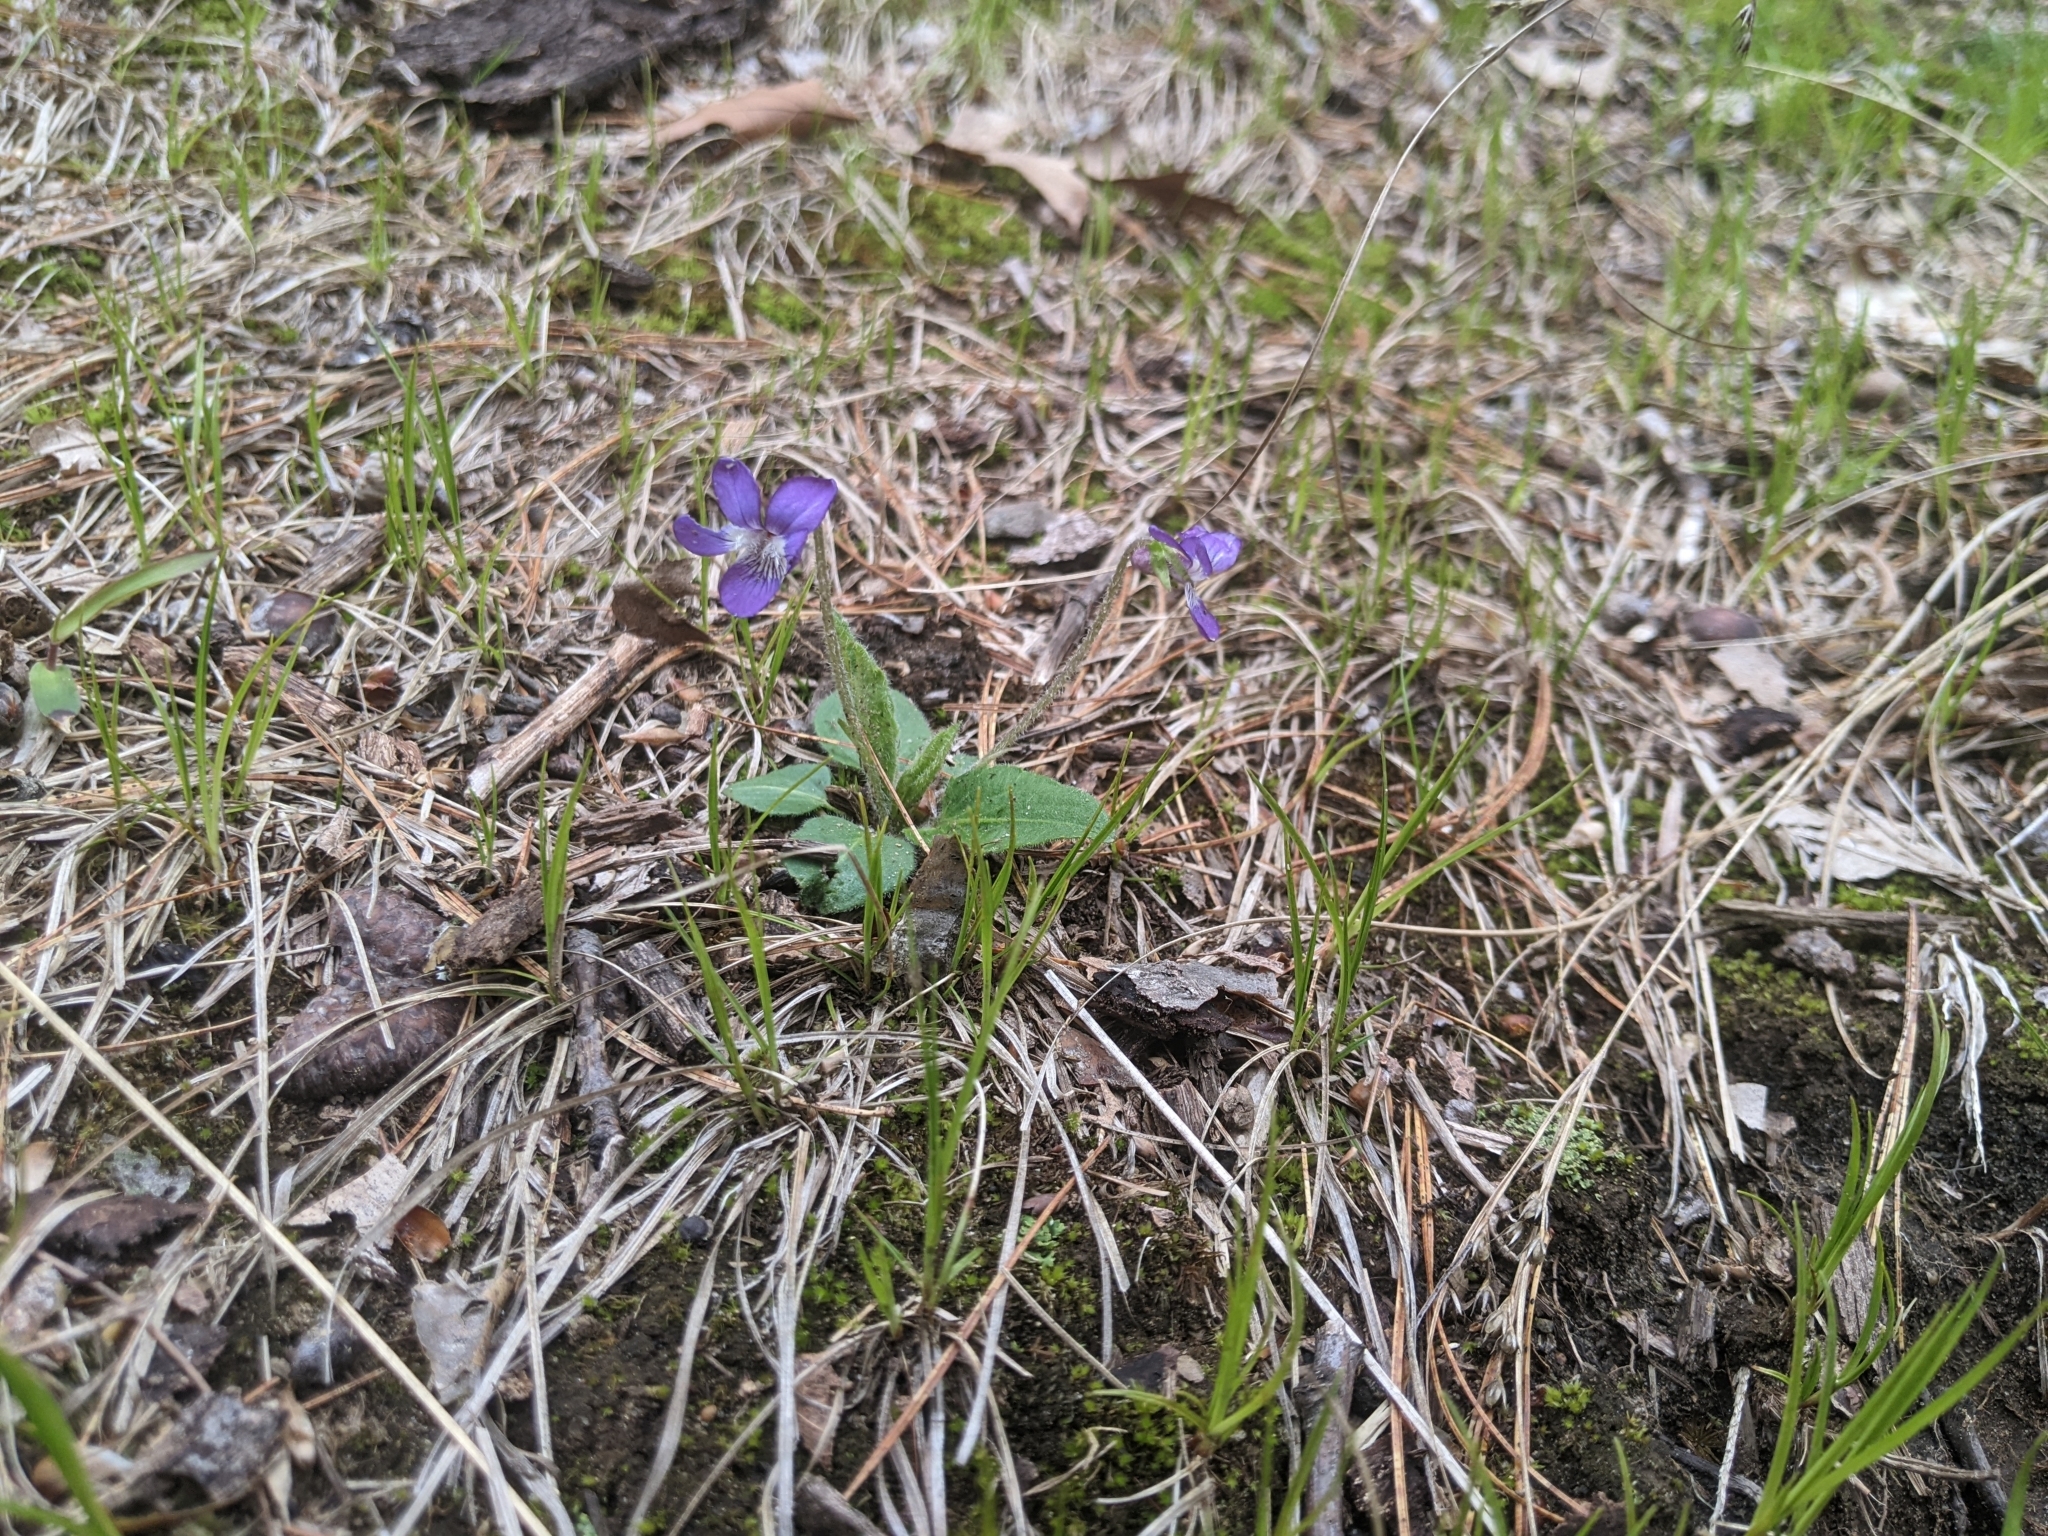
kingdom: Plantae
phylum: Tracheophyta
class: Magnoliopsida
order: Malpighiales
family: Violaceae
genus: Viola
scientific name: Viola fimbriatula
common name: Sand violet
